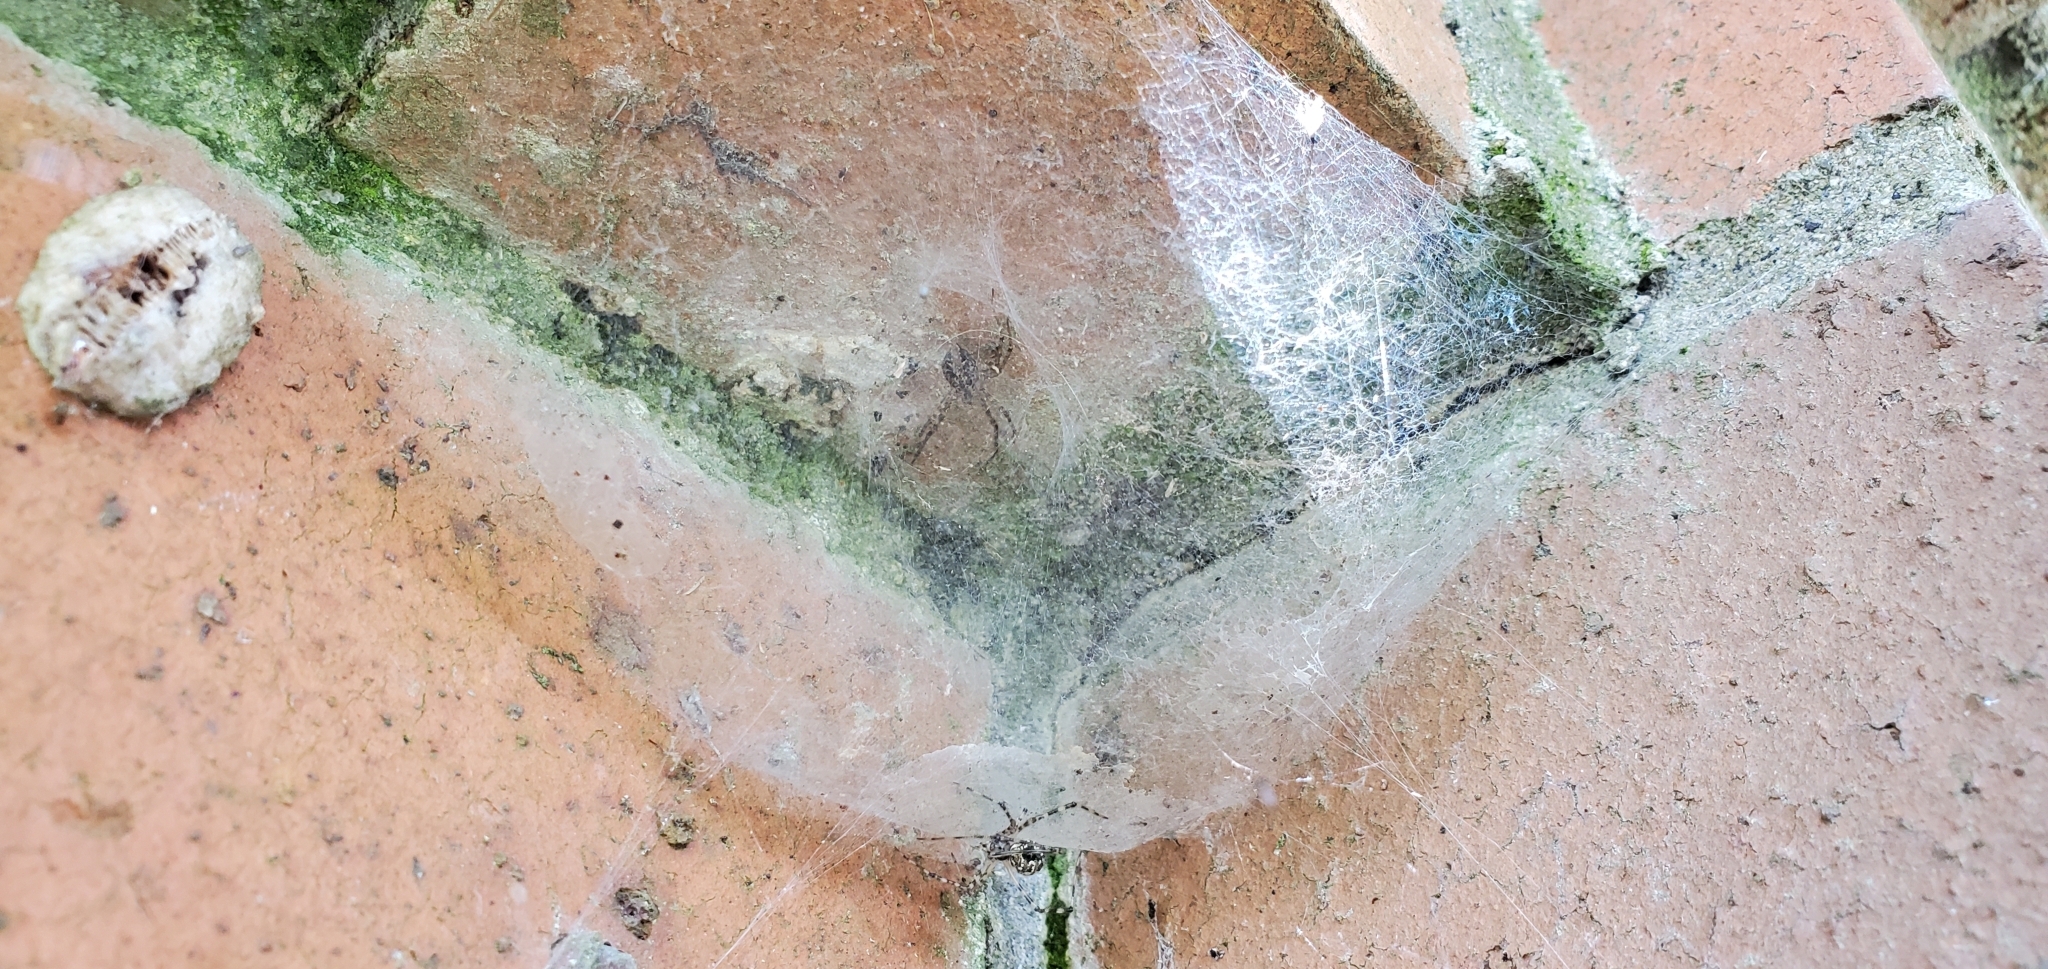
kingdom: Animalia
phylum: Arthropoda
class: Arachnida
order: Araneae
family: Stiphidiidae
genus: Stiphidion
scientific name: Stiphidion facetum
